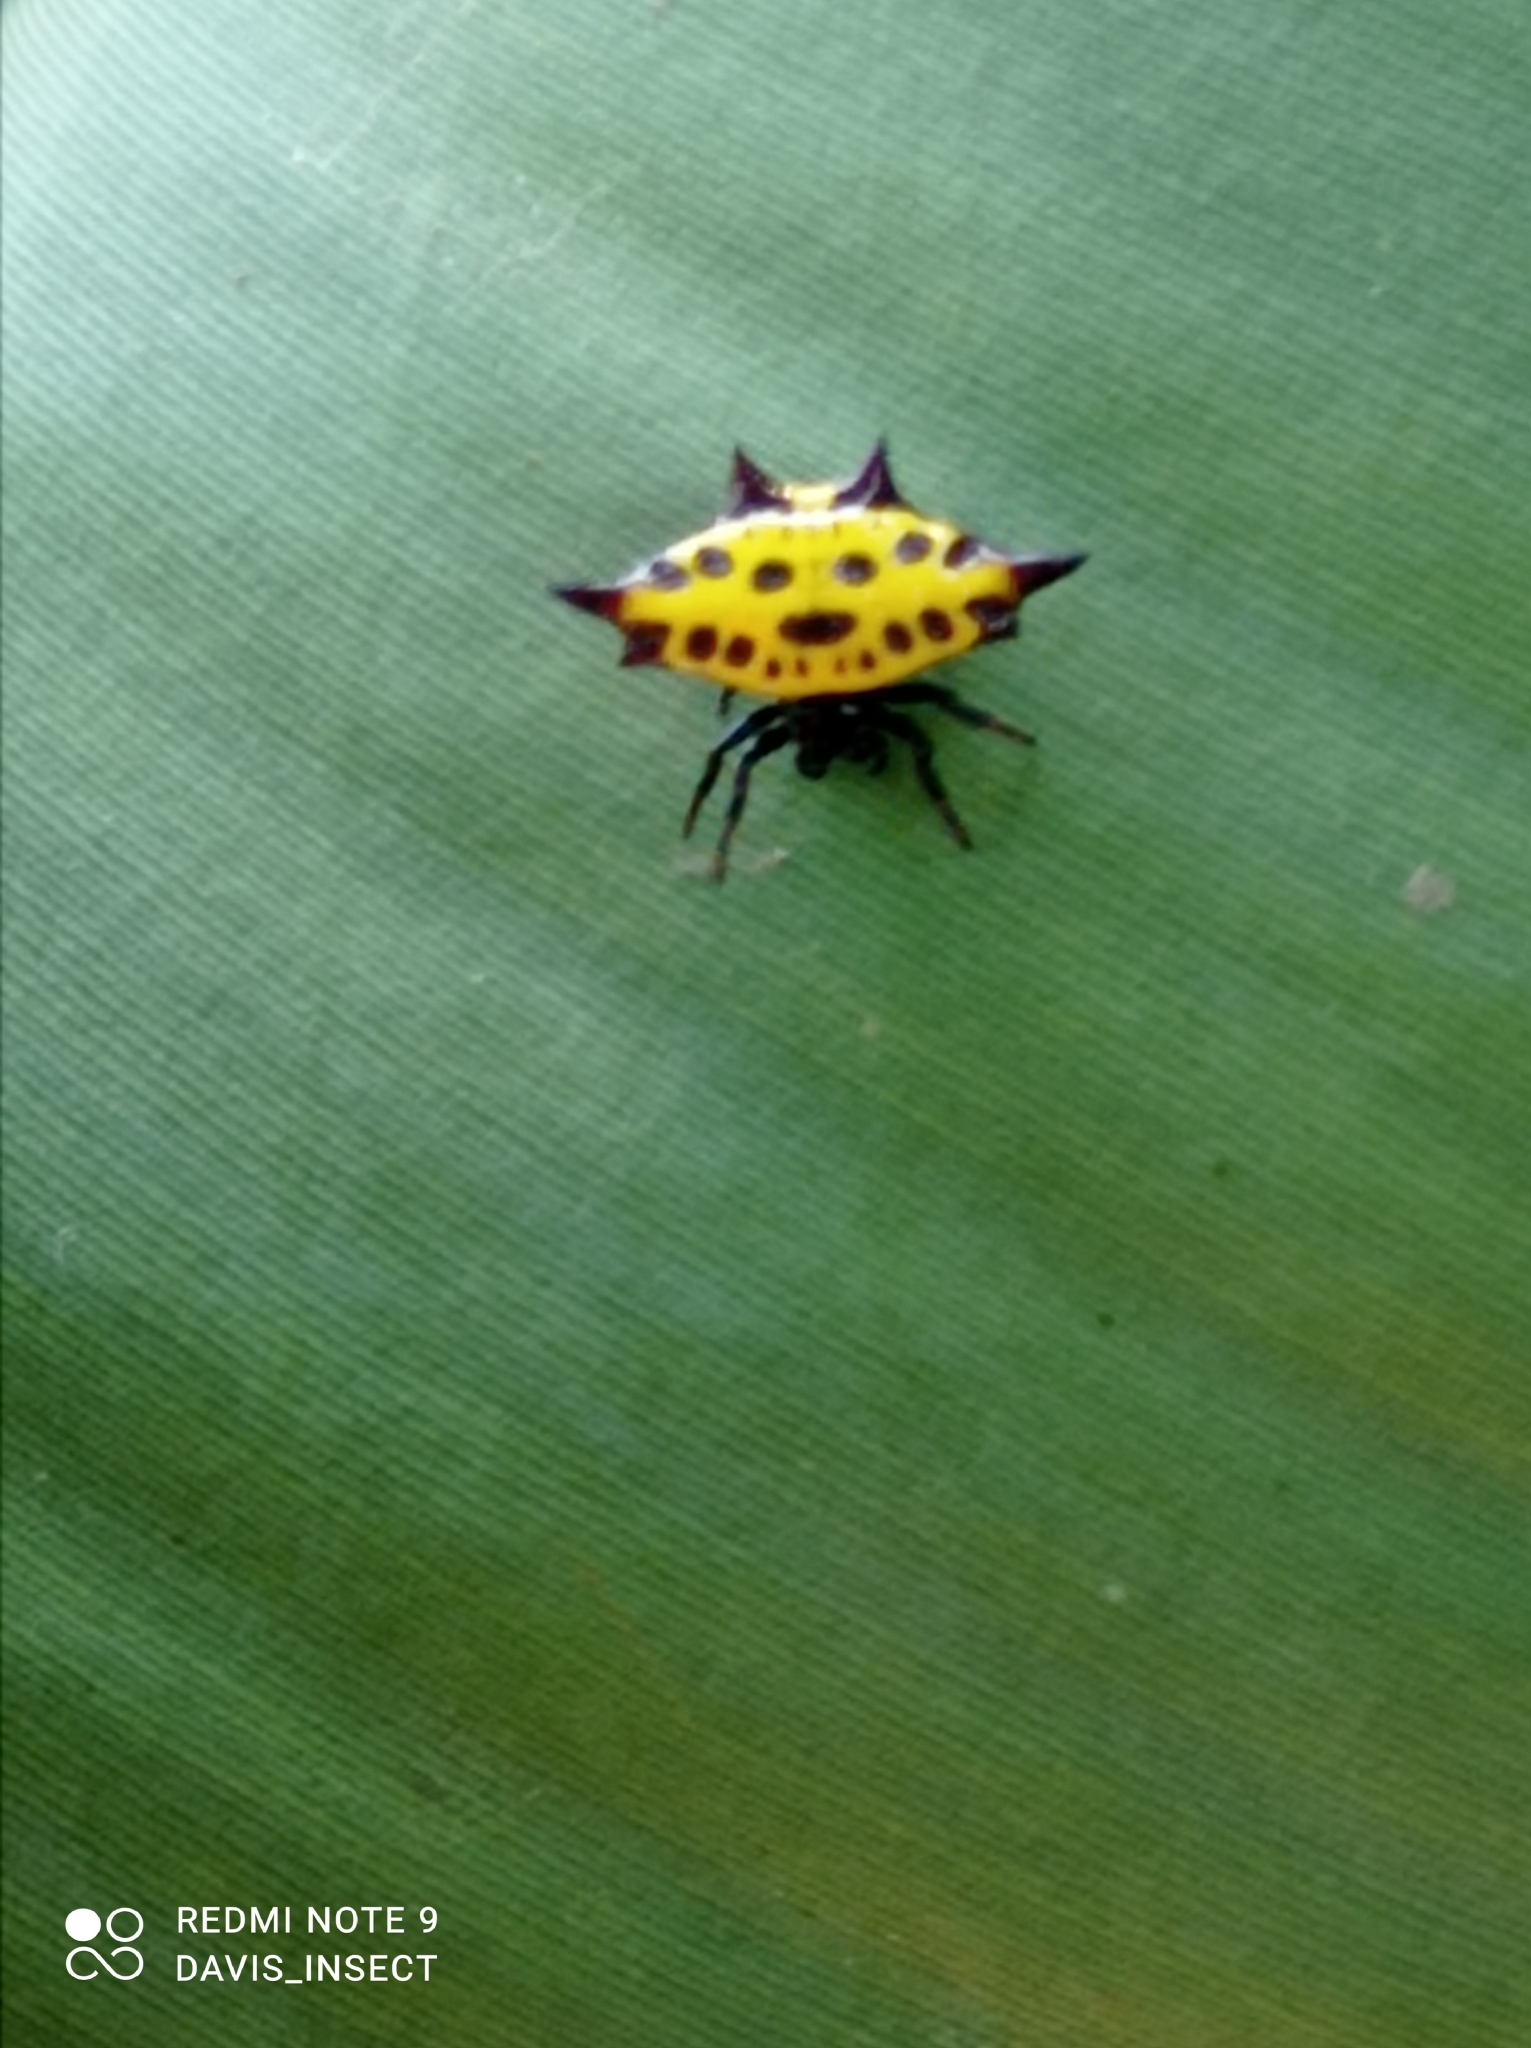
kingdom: Animalia
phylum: Arthropoda
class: Arachnida
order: Araneae
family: Araneidae
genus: Gasteracantha
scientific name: Gasteracantha taeniata
